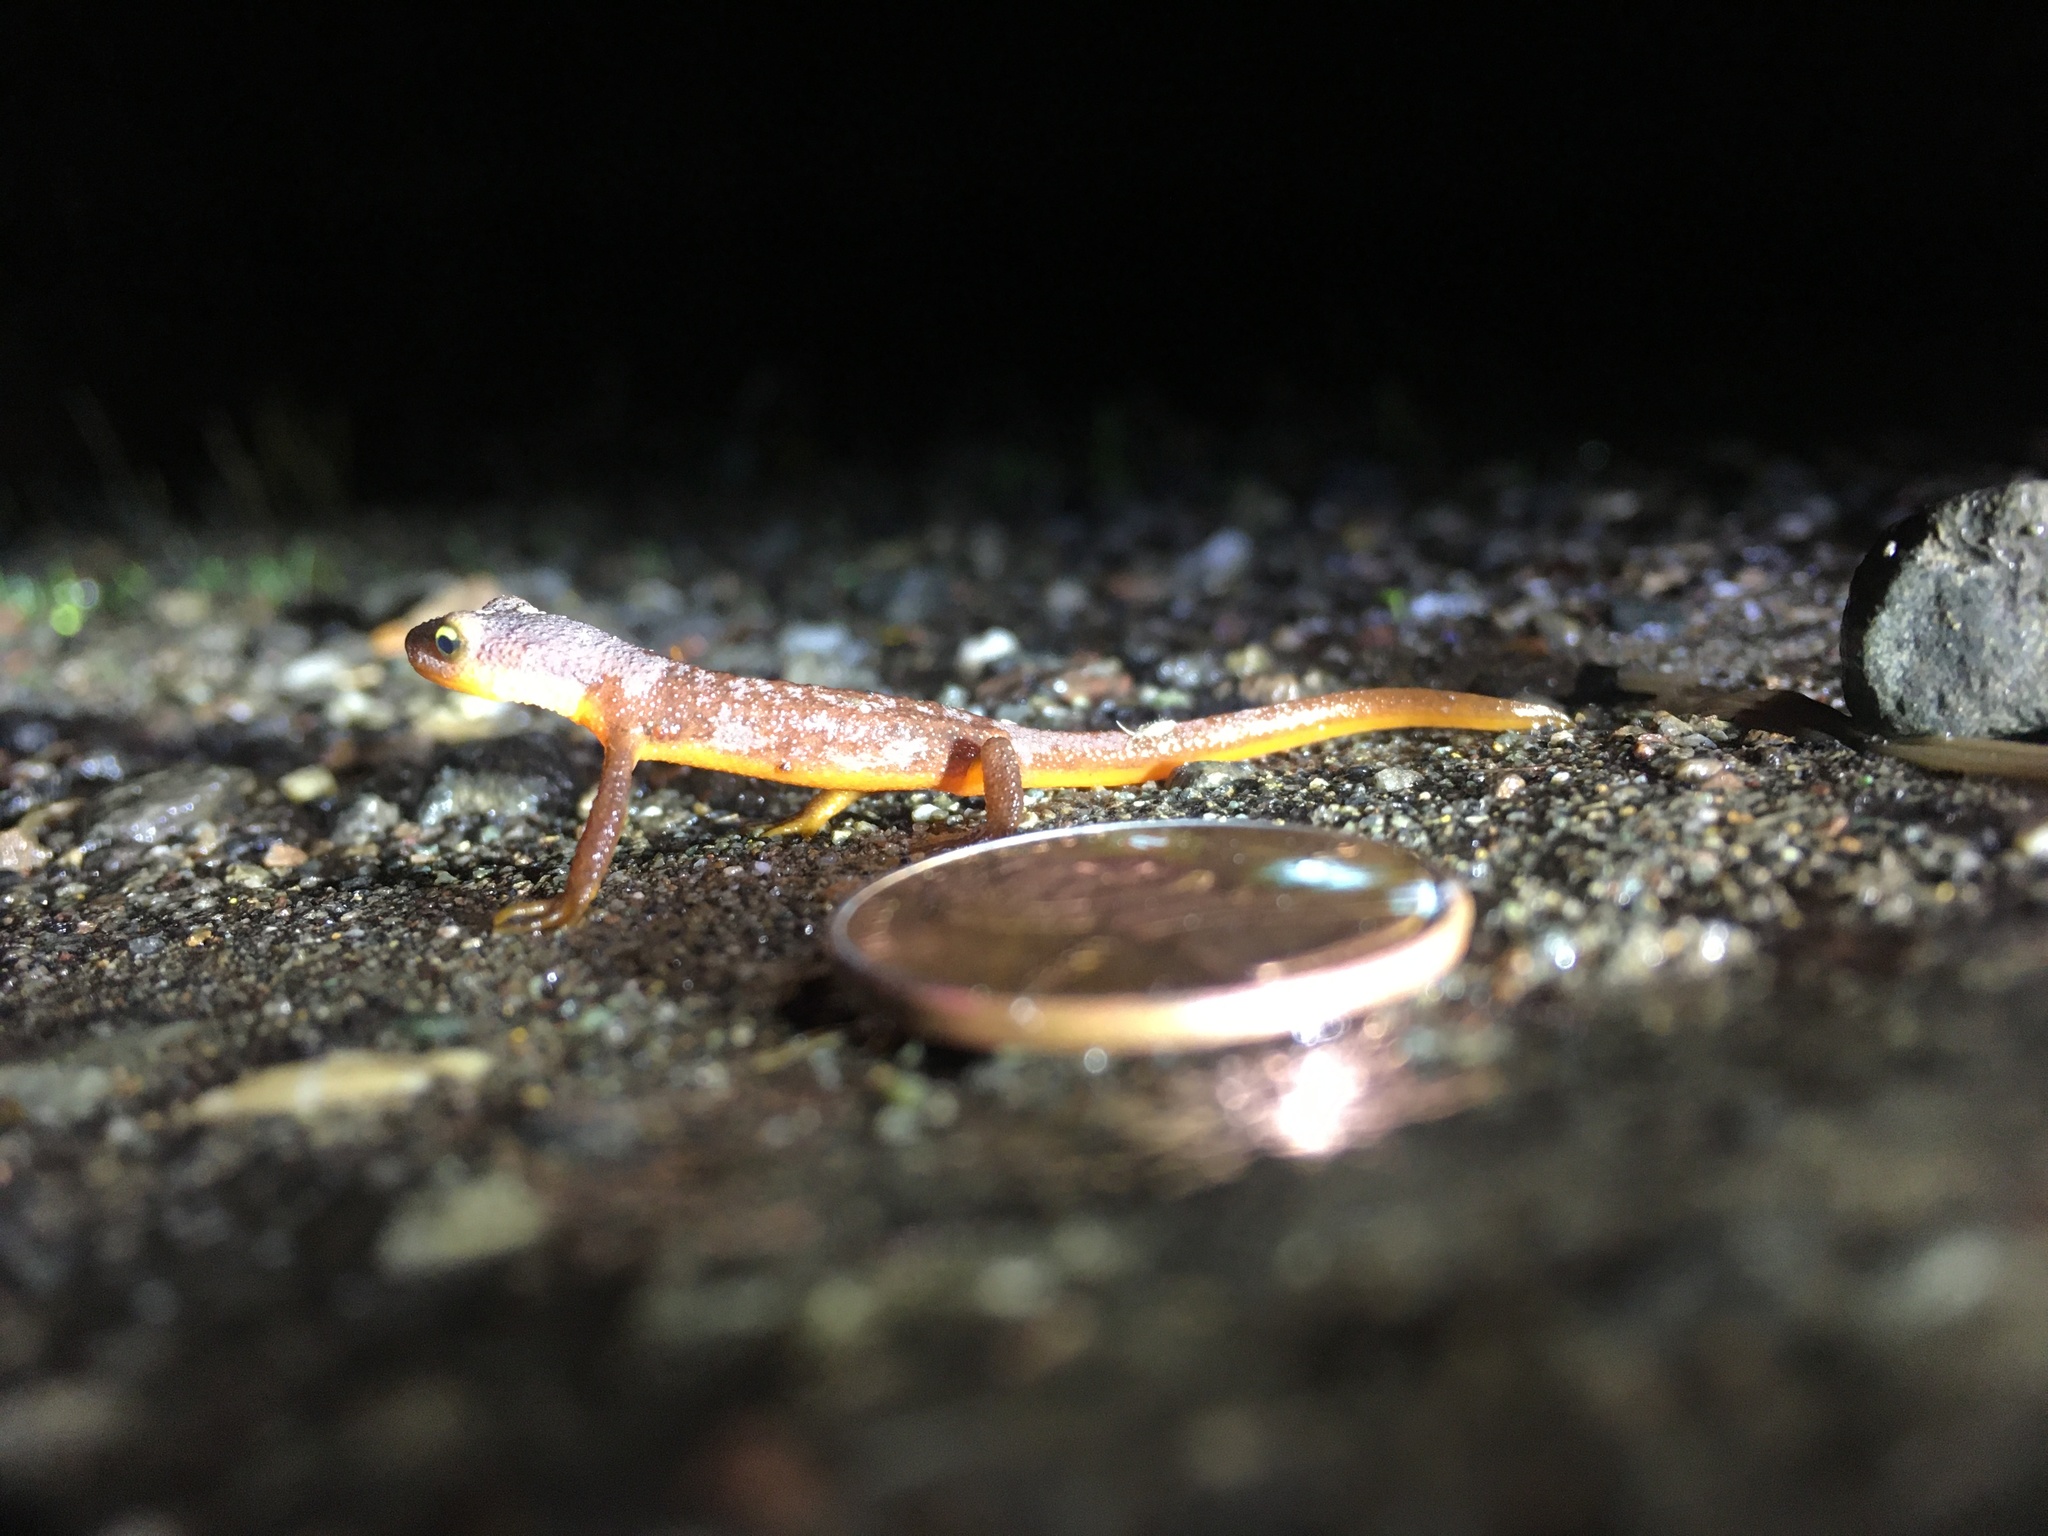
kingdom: Animalia
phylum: Chordata
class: Amphibia
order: Caudata
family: Salamandridae
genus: Taricha
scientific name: Taricha torosa
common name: California newt
